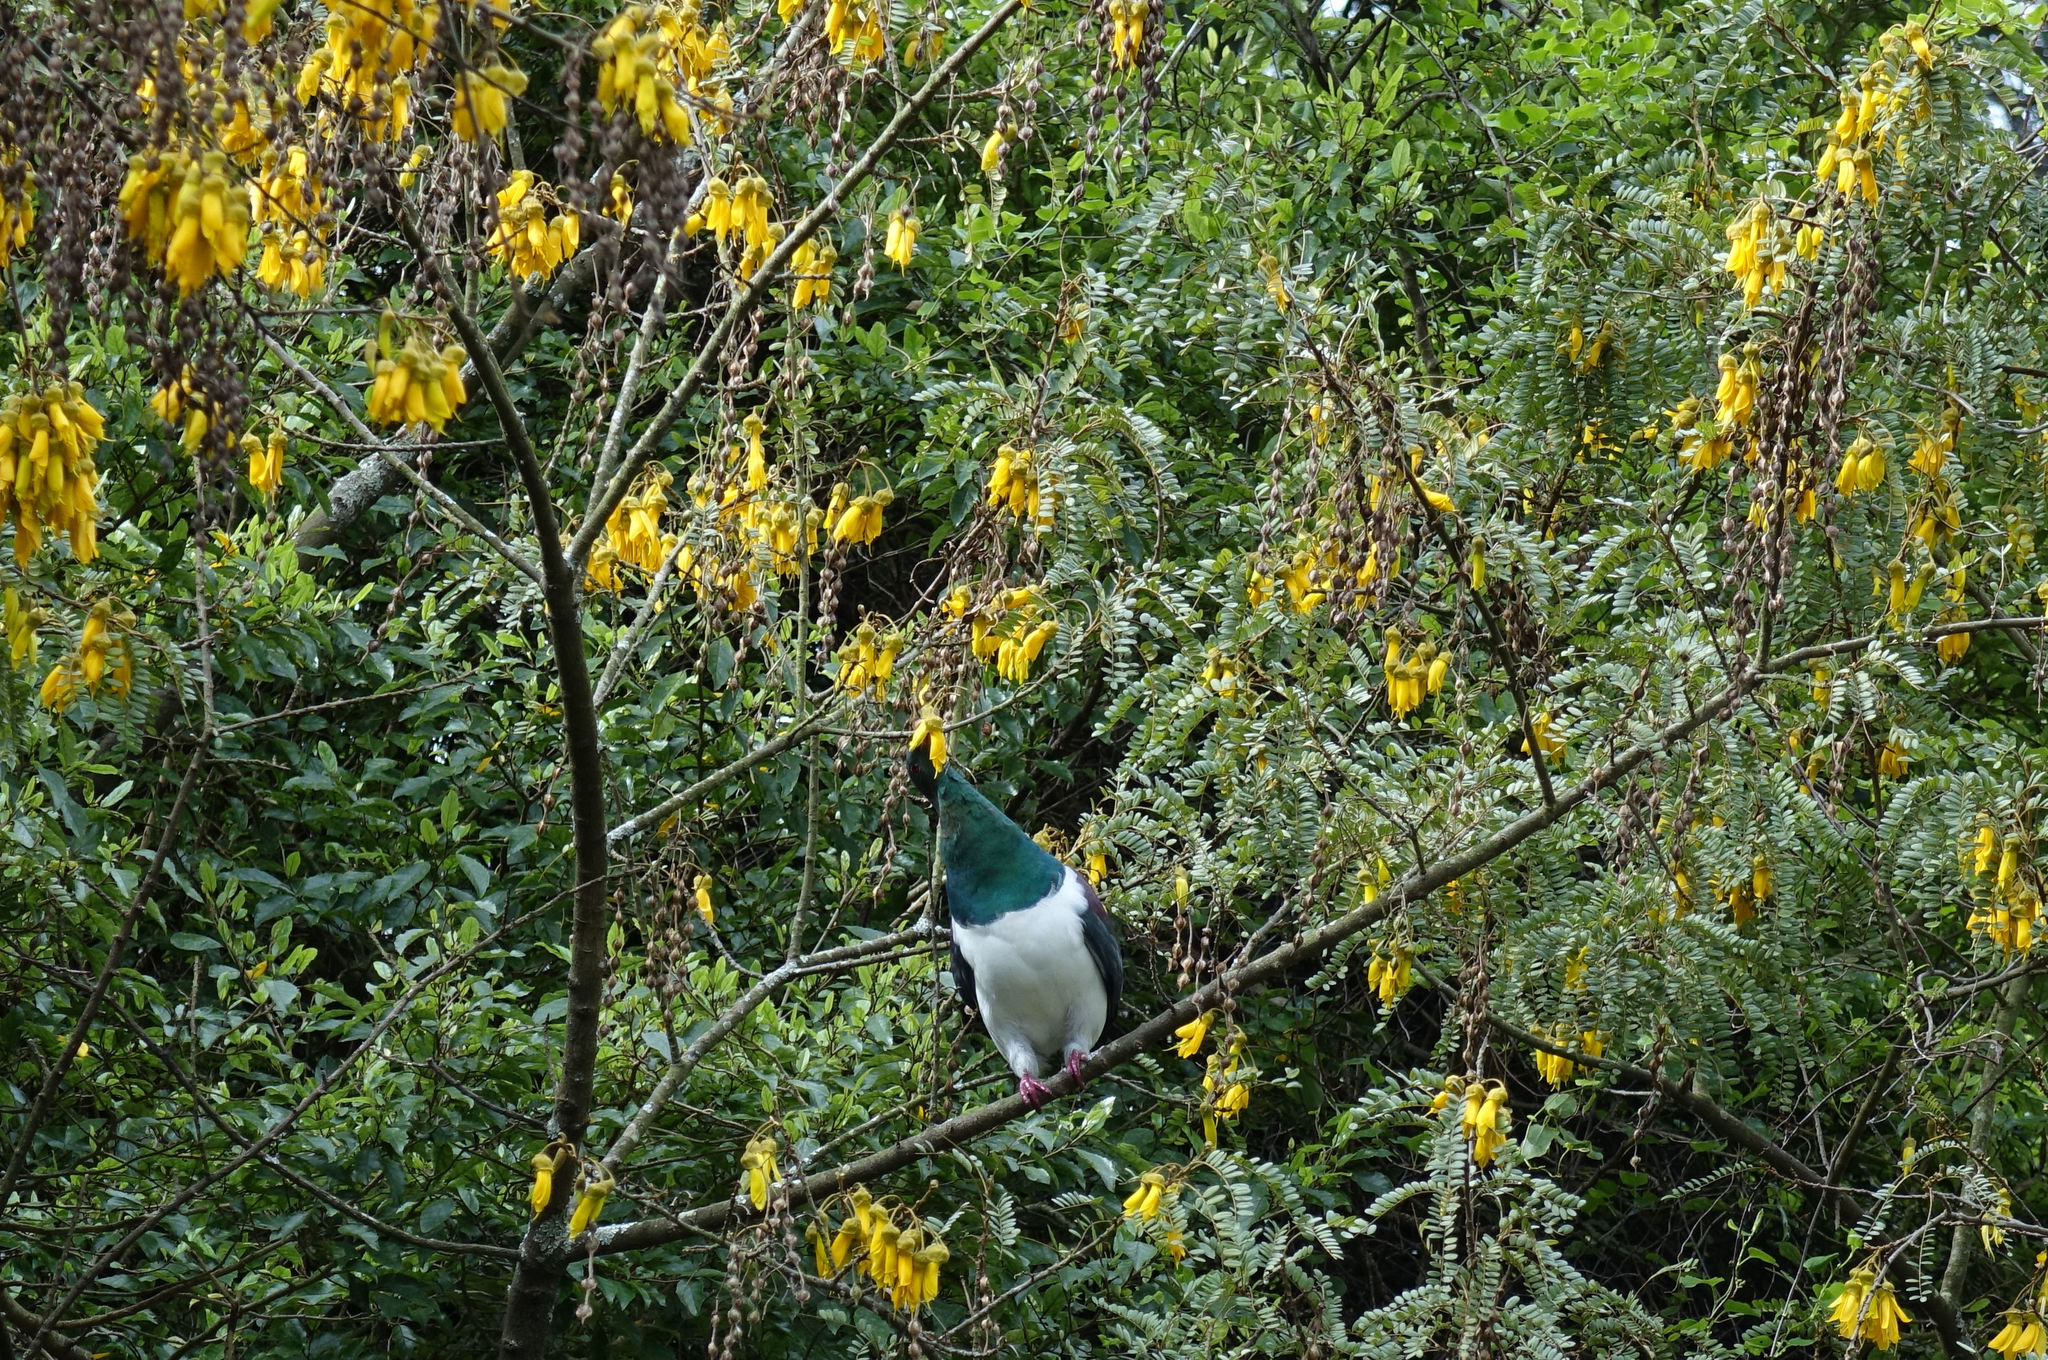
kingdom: Animalia
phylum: Chordata
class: Aves
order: Columbiformes
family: Columbidae
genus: Hemiphaga
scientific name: Hemiphaga novaeseelandiae
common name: New zealand pigeon
